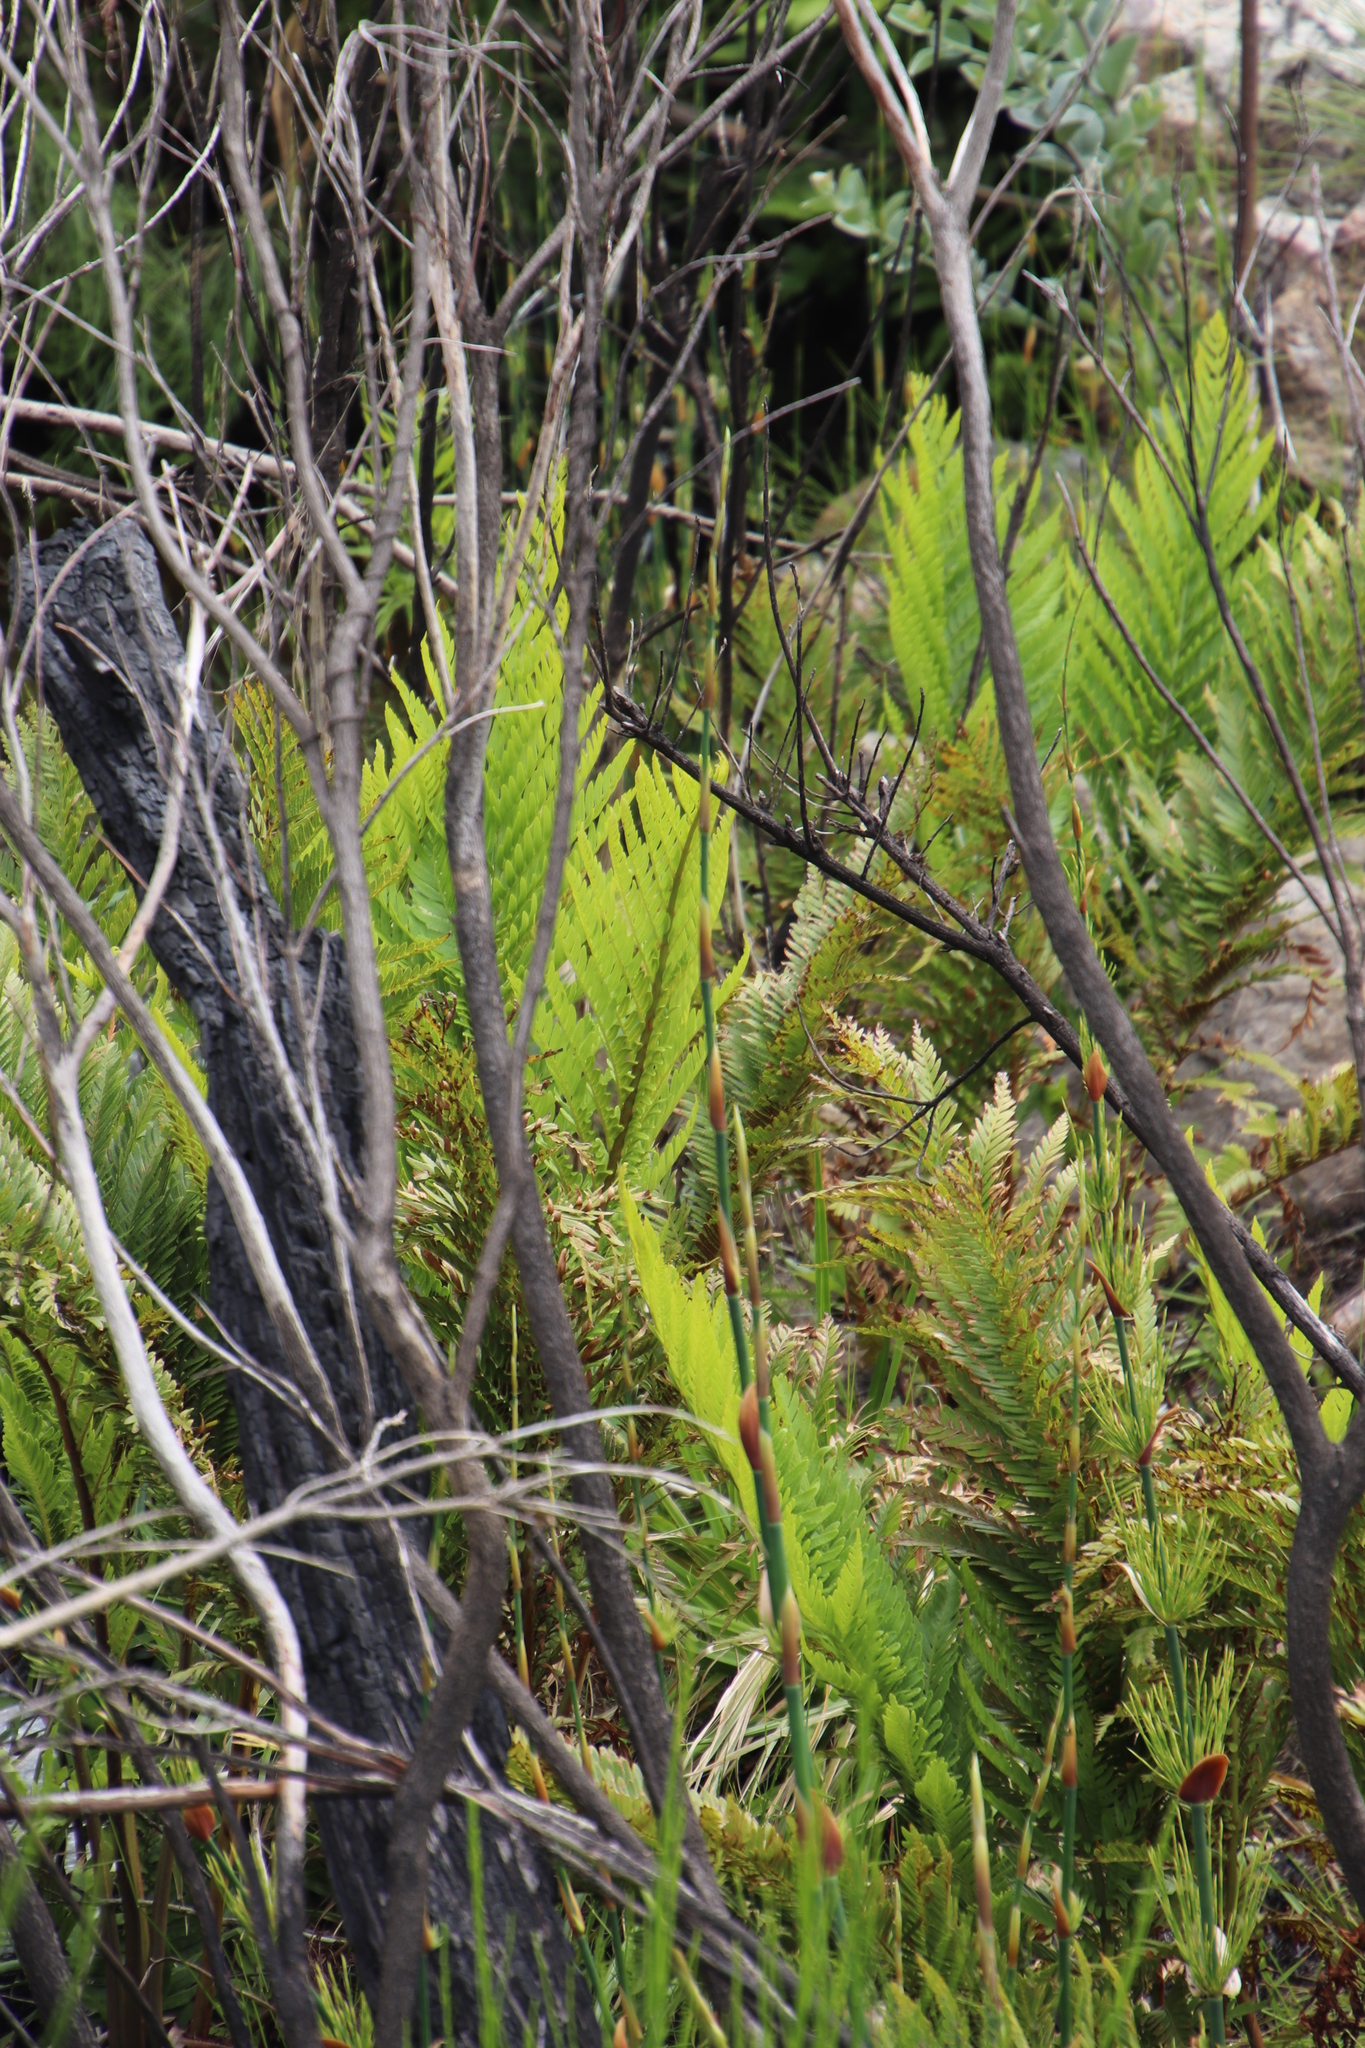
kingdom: Plantae
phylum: Tracheophyta
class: Polypodiopsida
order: Osmundales
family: Osmundaceae
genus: Todea
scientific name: Todea barbara
